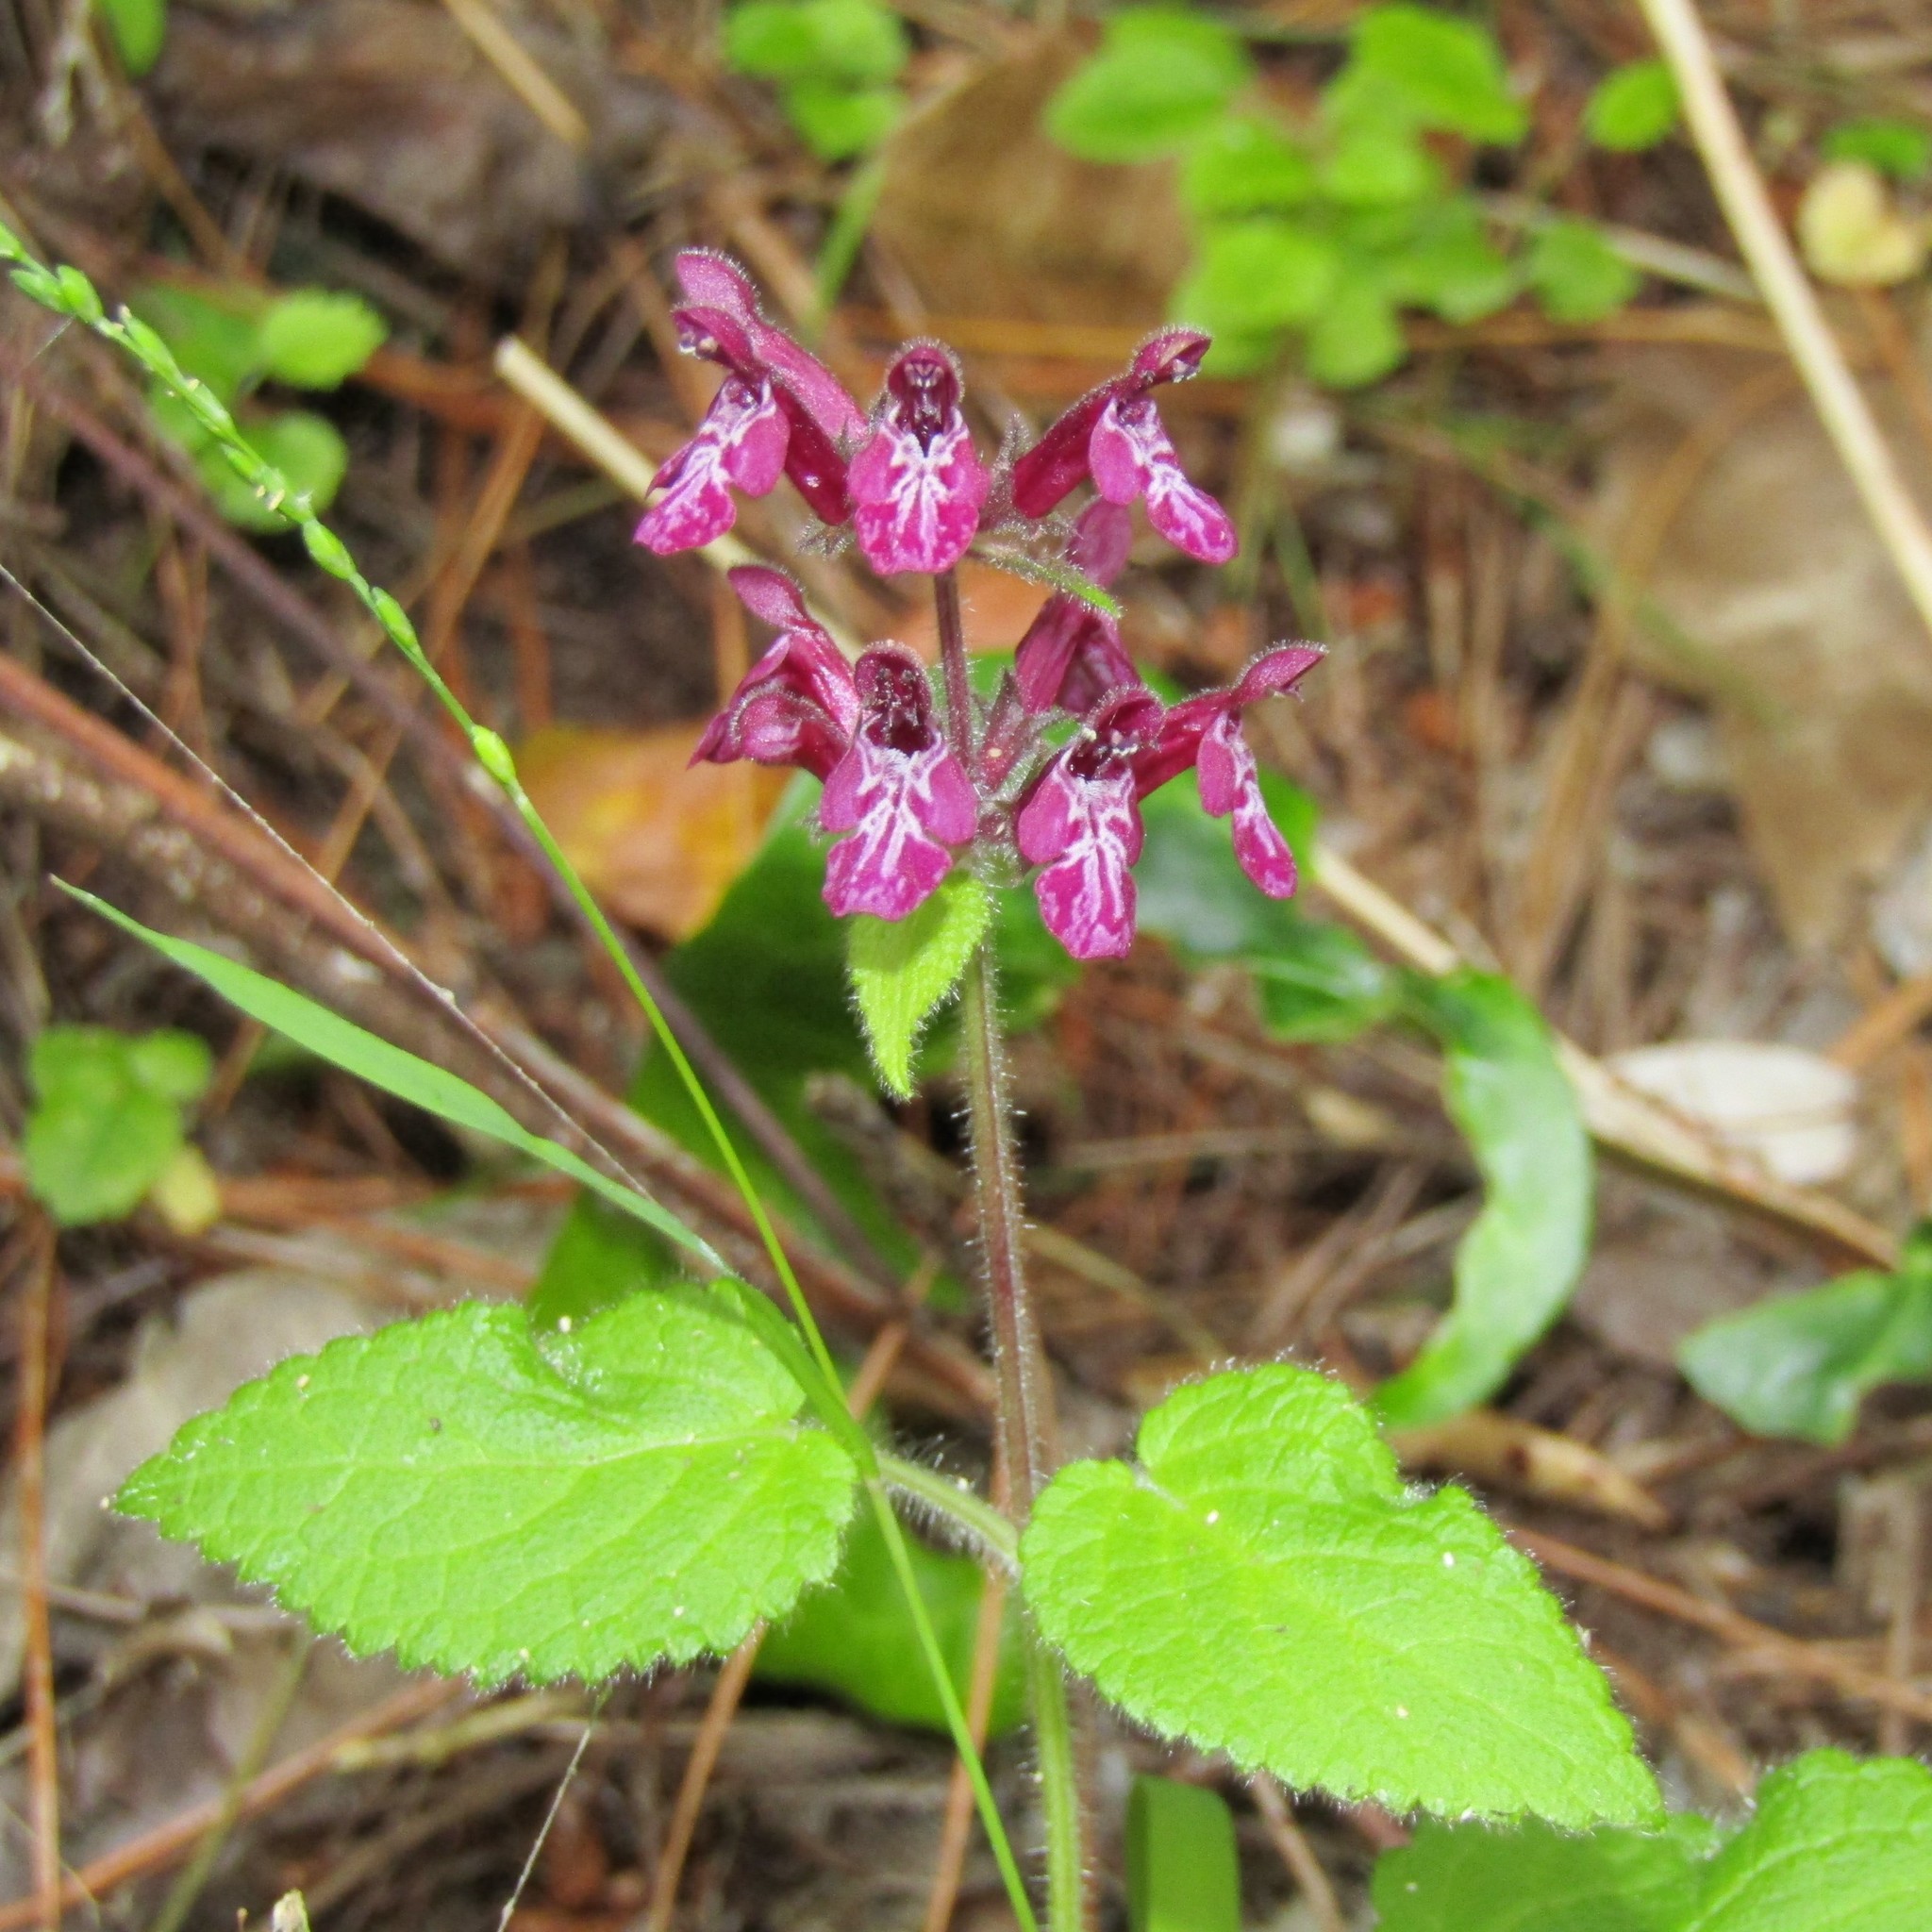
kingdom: Plantae
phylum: Tracheophyta
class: Magnoliopsida
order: Lamiales
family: Lamiaceae
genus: Stachys
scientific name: Stachys sylvatica
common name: Hedge woundwort
